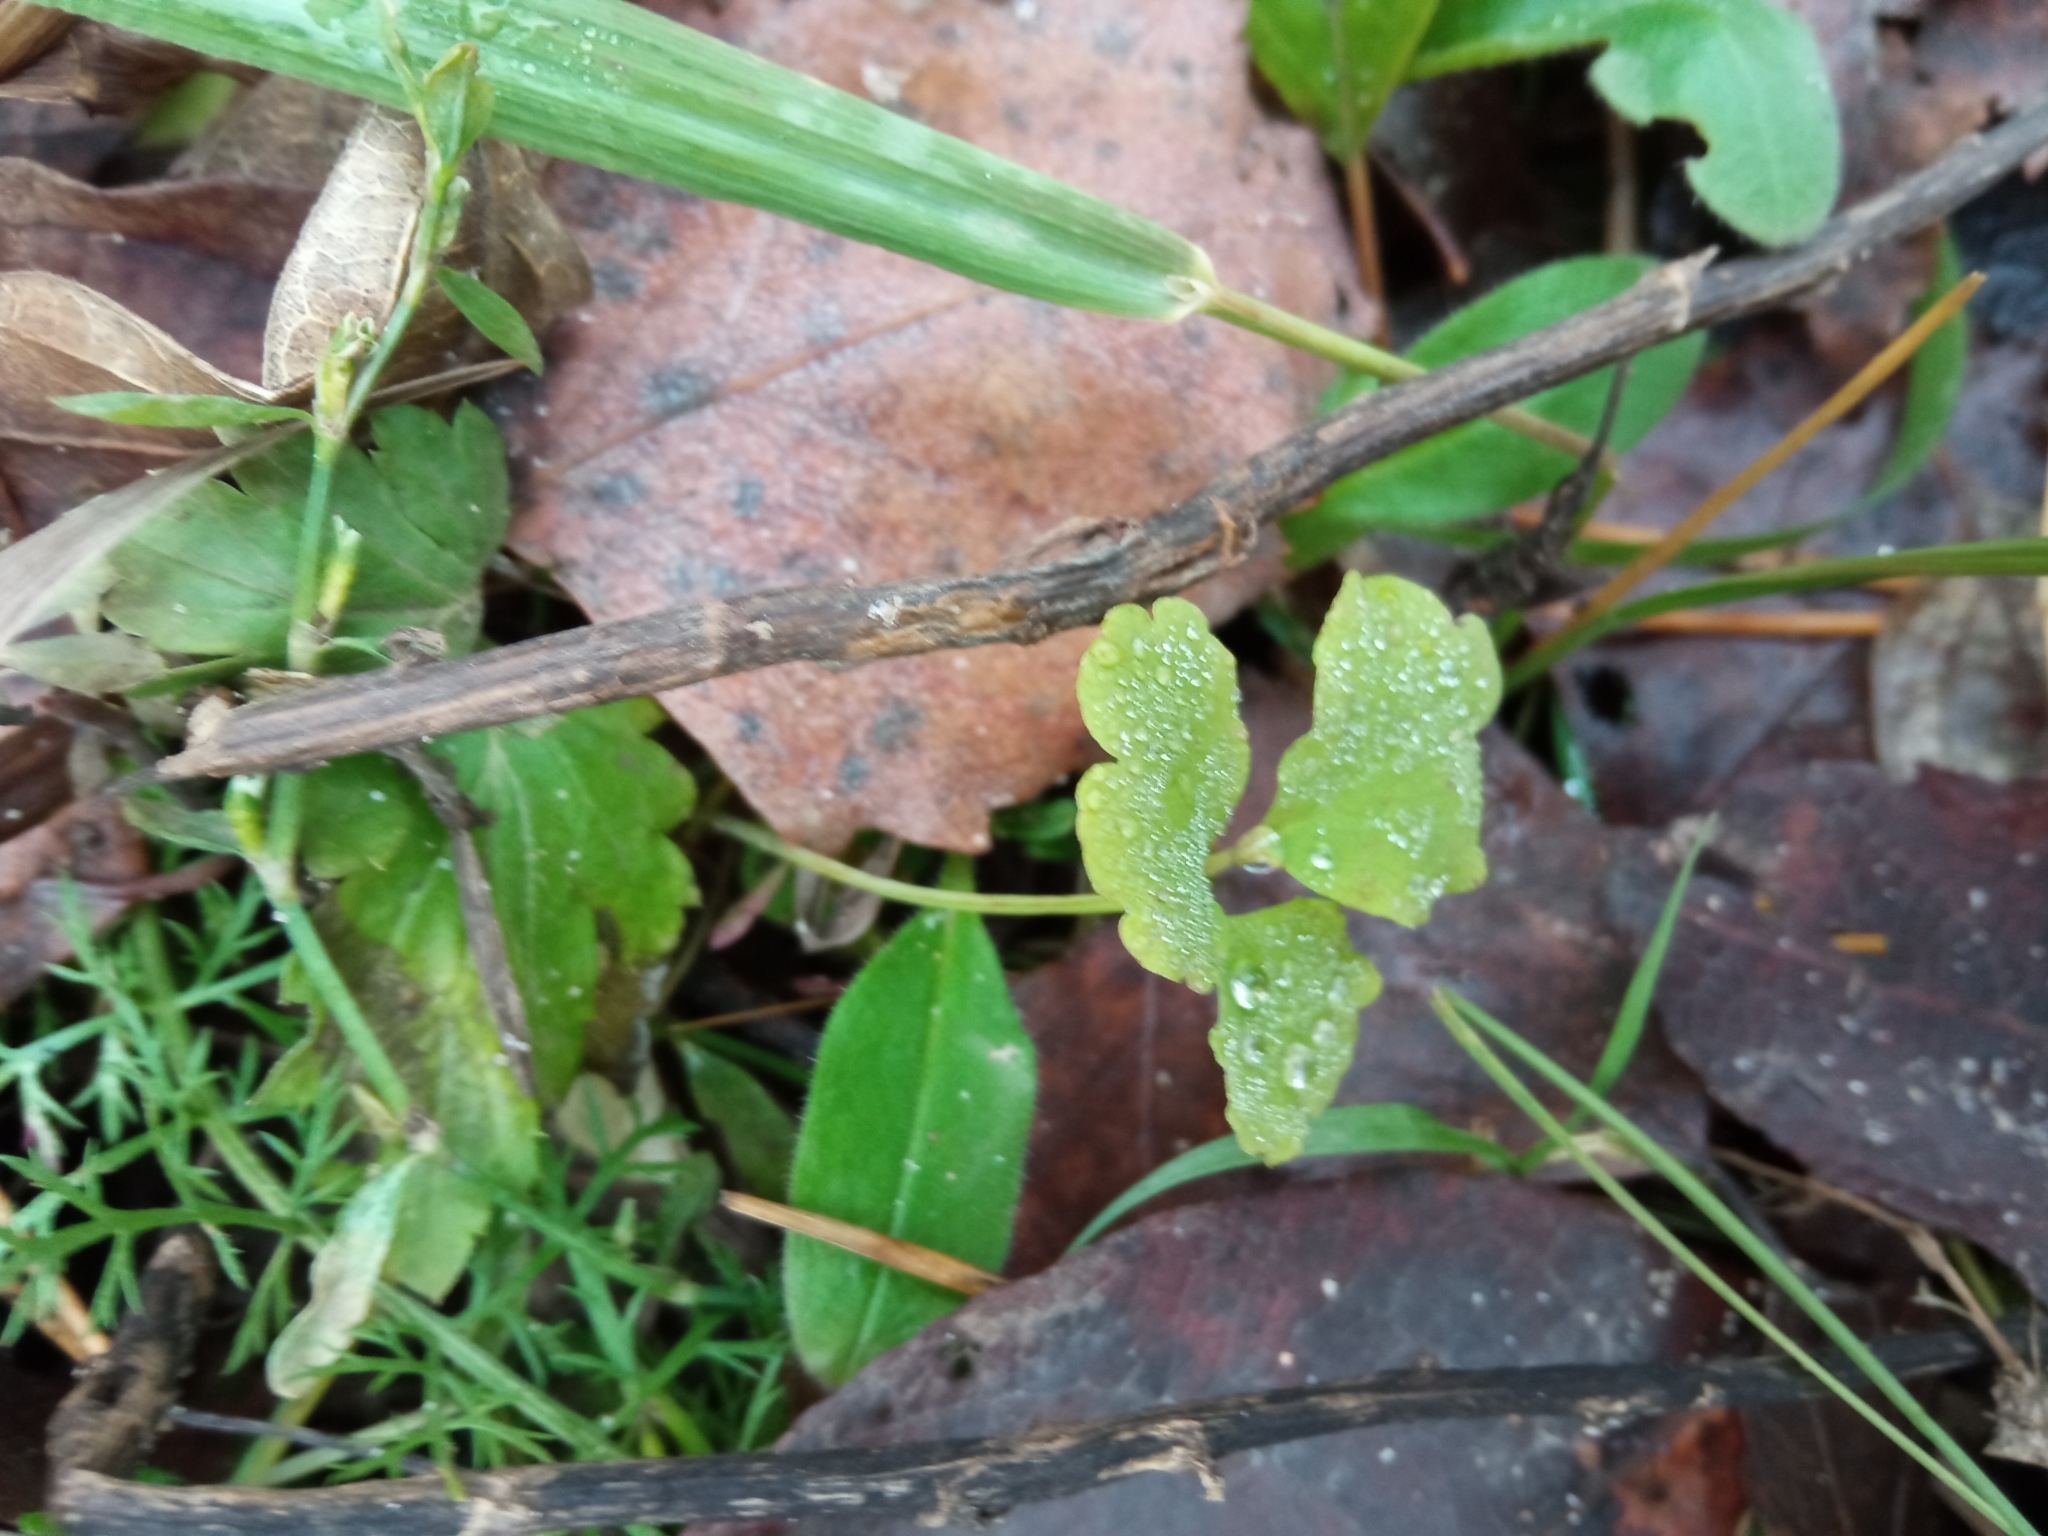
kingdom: Plantae
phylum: Tracheophyta
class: Magnoliopsida
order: Ranunculales
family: Papaveraceae
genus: Chelidonium
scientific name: Chelidonium majus
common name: Greater celandine
